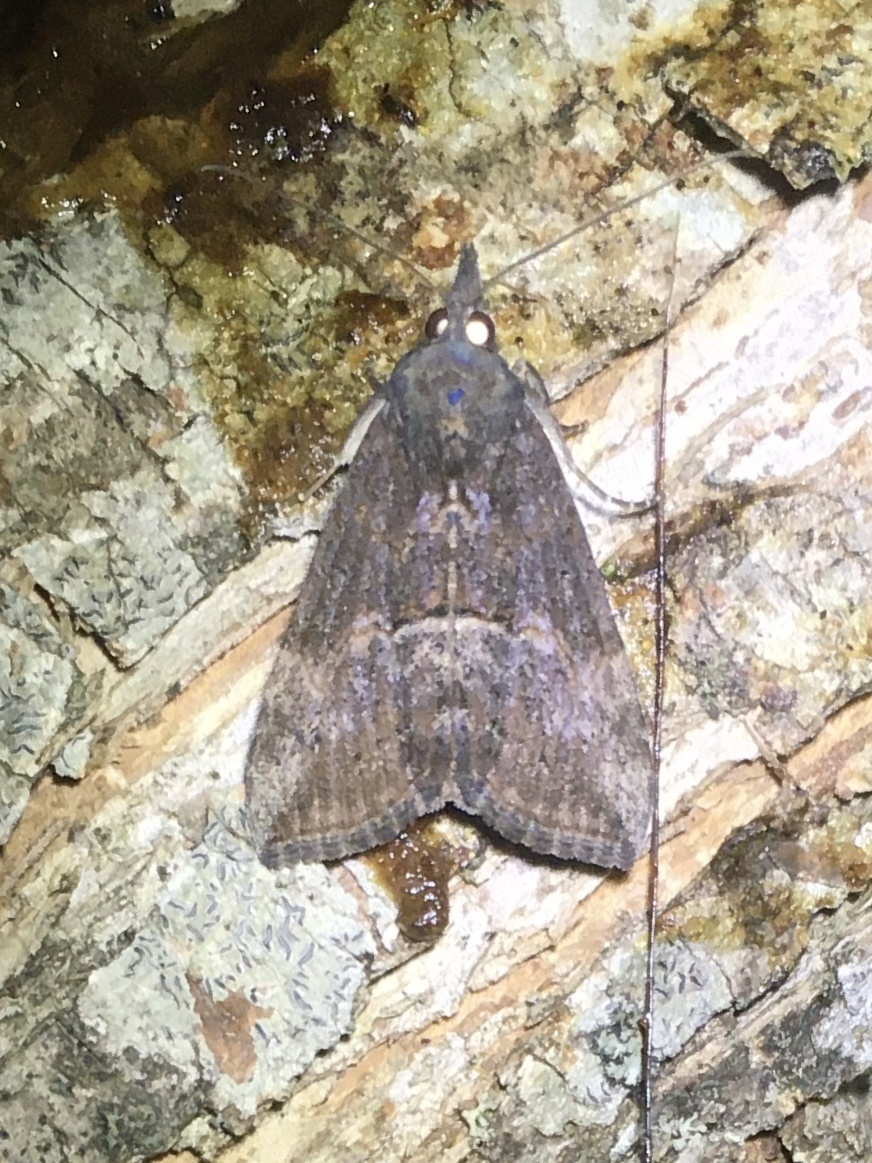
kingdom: Animalia
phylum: Arthropoda
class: Insecta
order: Lepidoptera
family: Erebidae
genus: Hypena
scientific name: Hypena scabra
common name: Green cloverworm
